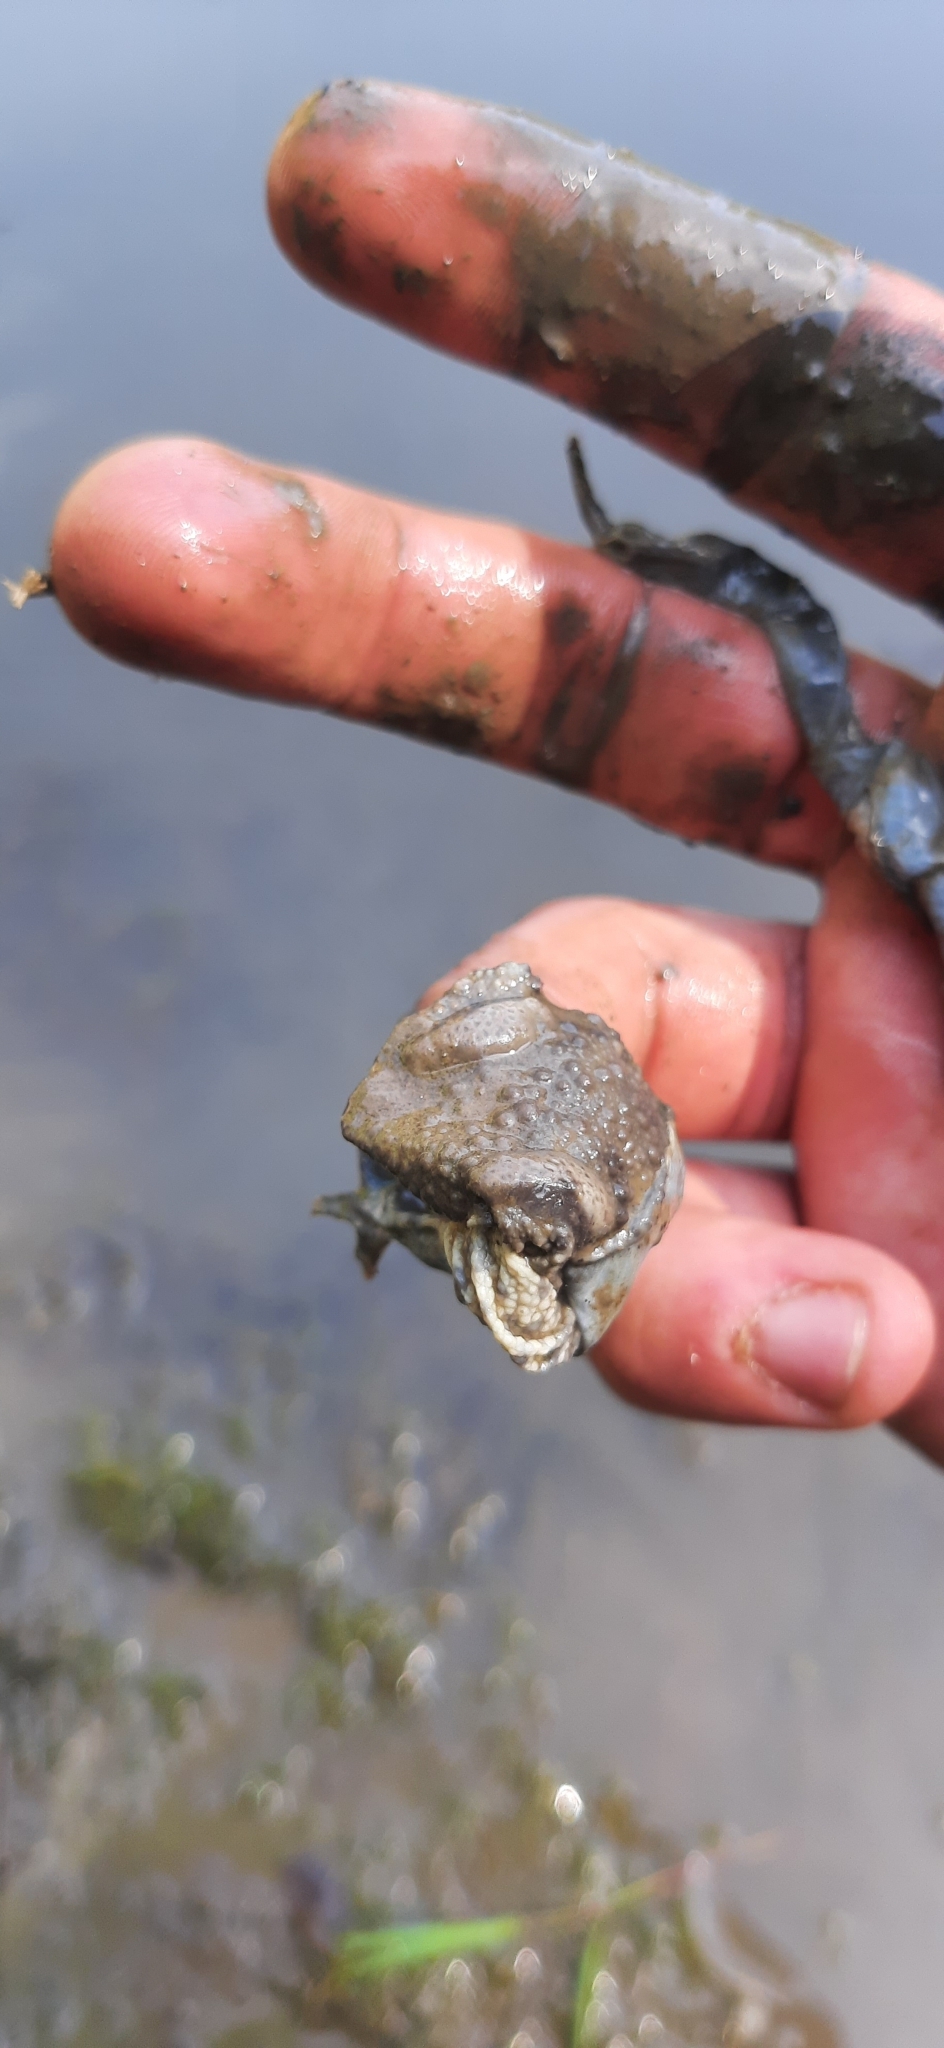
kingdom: Animalia
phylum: Chordata
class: Amphibia
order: Anura
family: Bufonidae
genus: Bufo
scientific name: Bufo bufo
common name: Common toad
